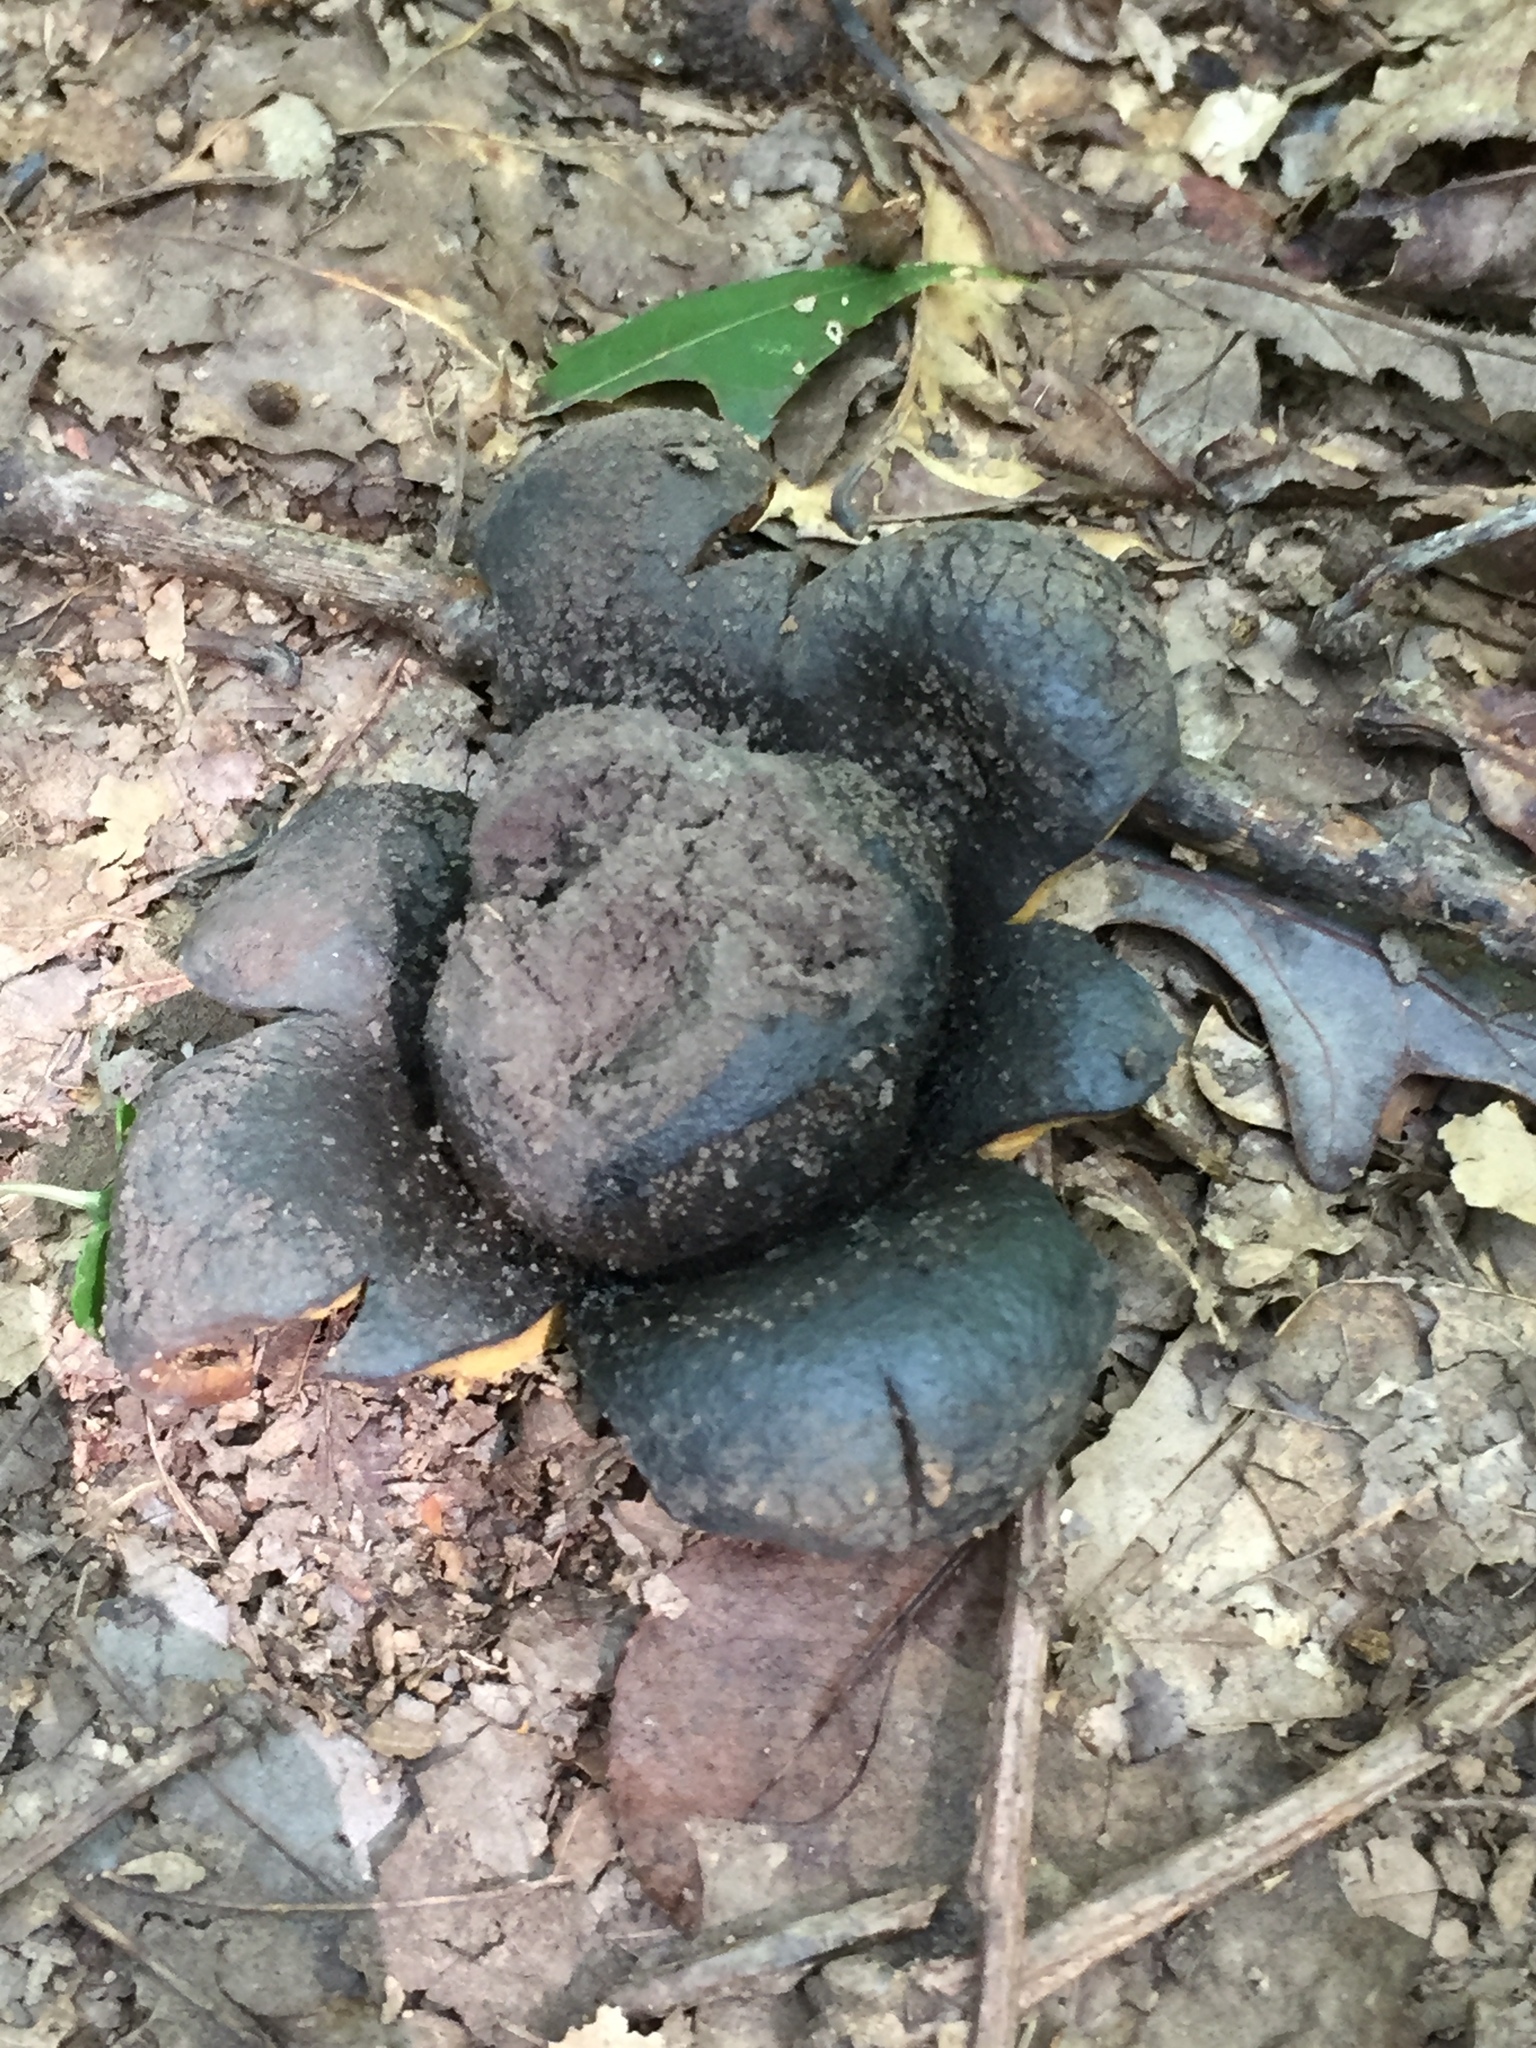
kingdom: Fungi
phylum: Basidiomycota
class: Agaricomycetes
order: Boletales
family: Sclerodermataceae
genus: Scleroderma
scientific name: Scleroderma polyrhizum
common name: Many-rooted earthball
